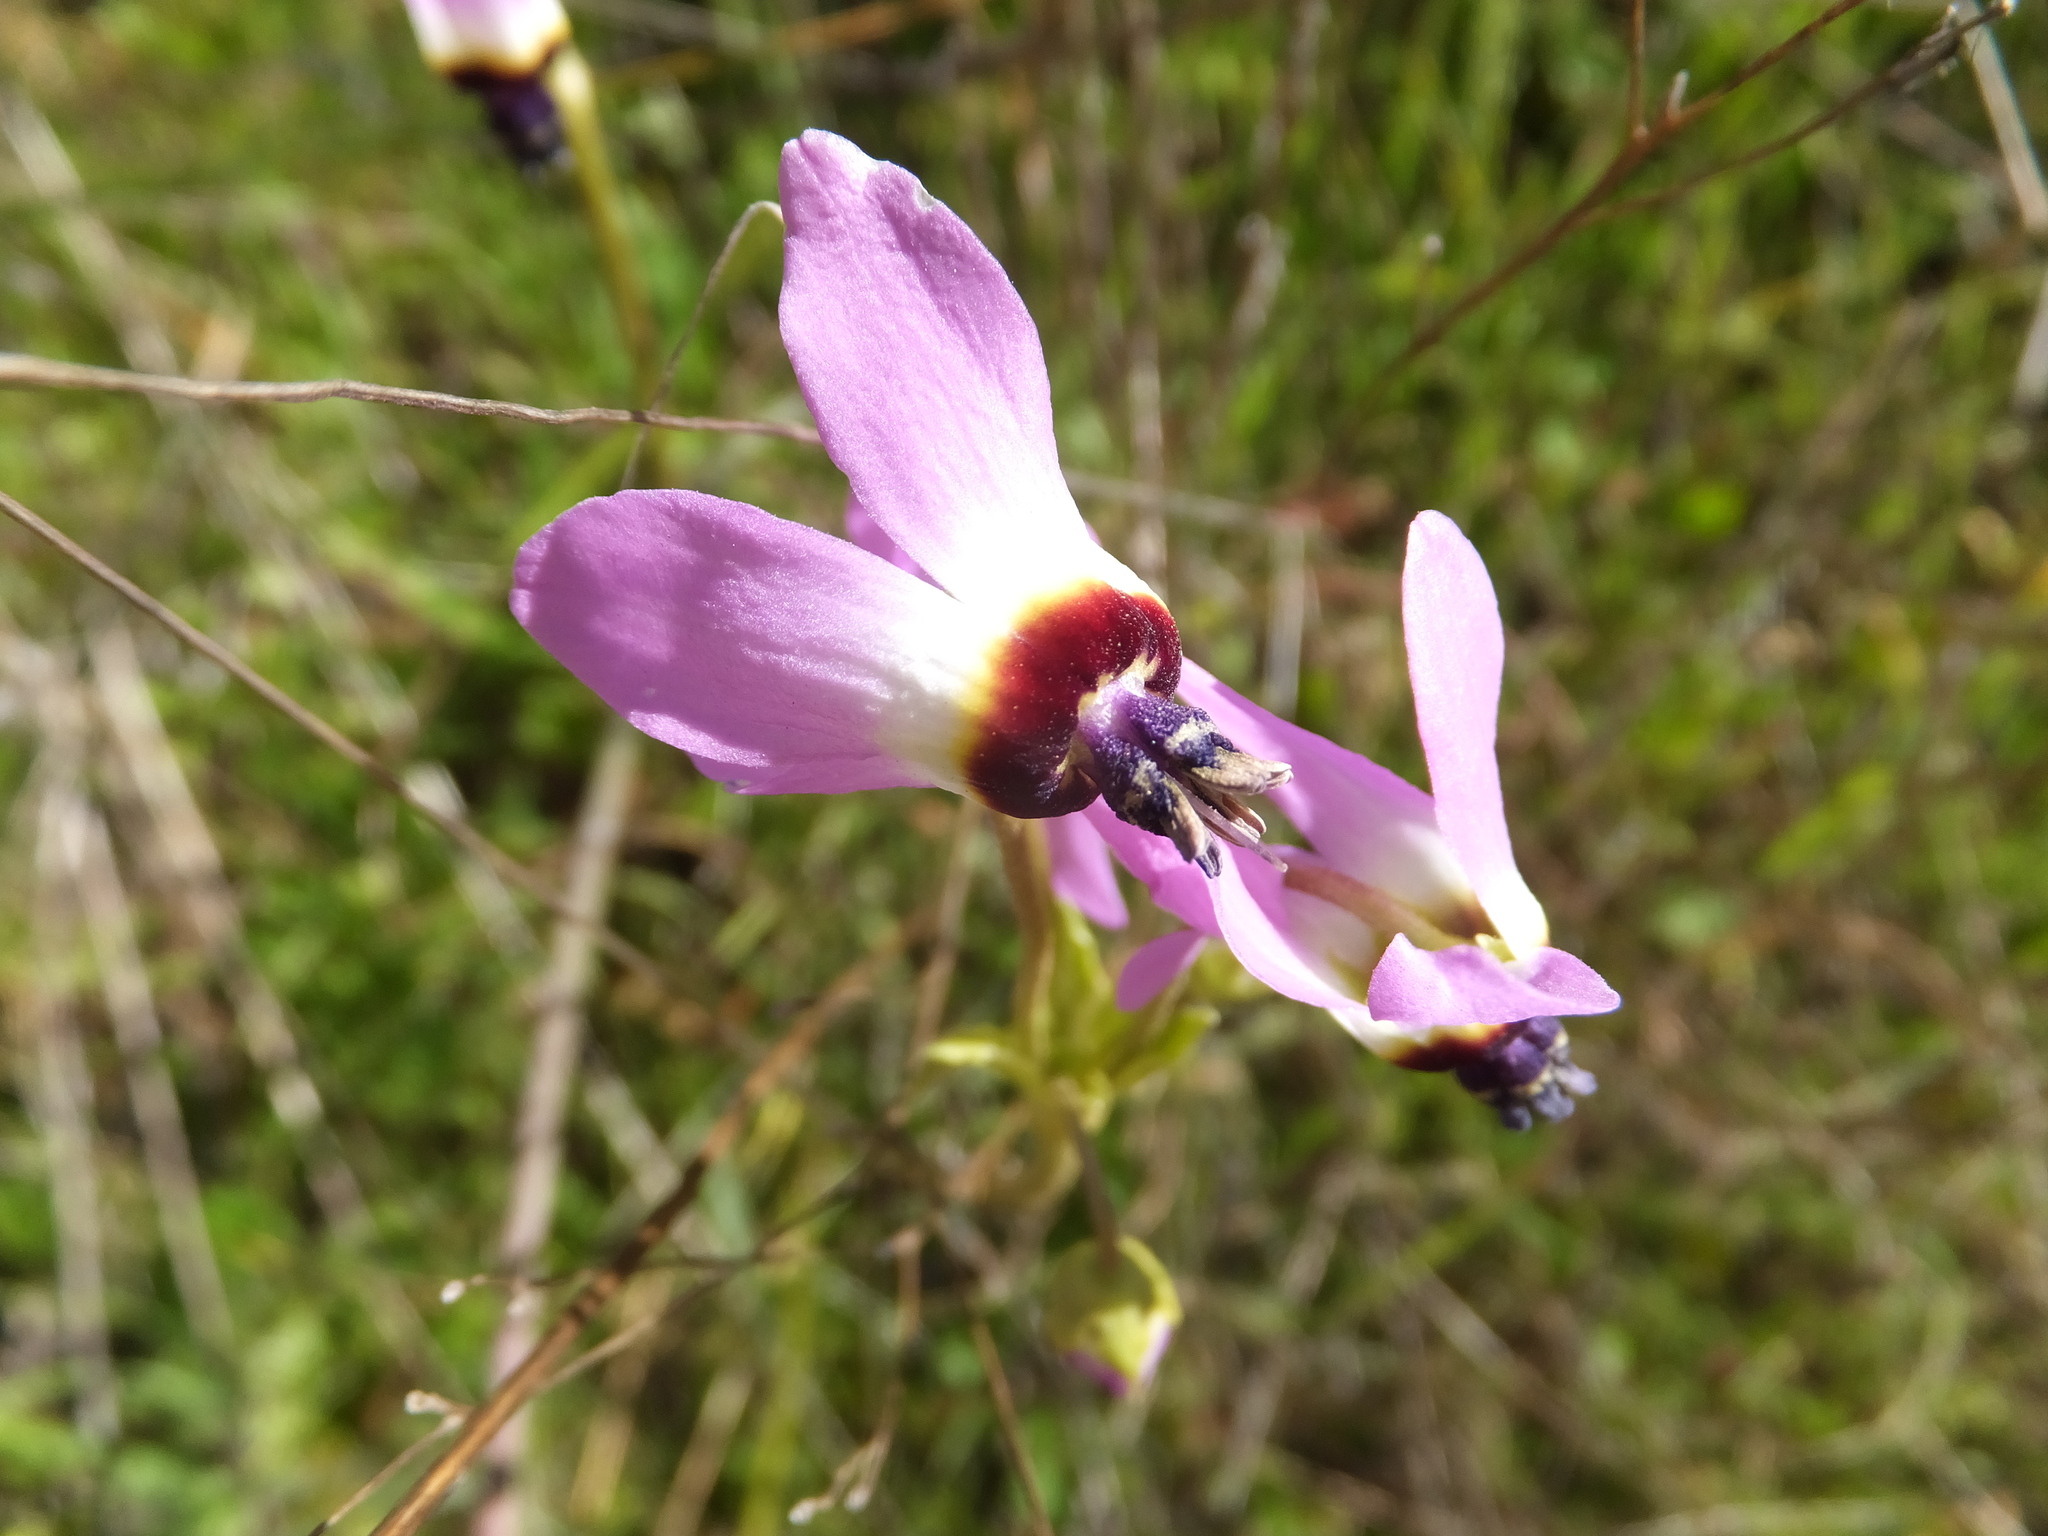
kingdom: Plantae
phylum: Tracheophyta
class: Magnoliopsida
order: Ericales
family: Primulaceae
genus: Dodecatheon
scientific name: Dodecatheon clevelandii
